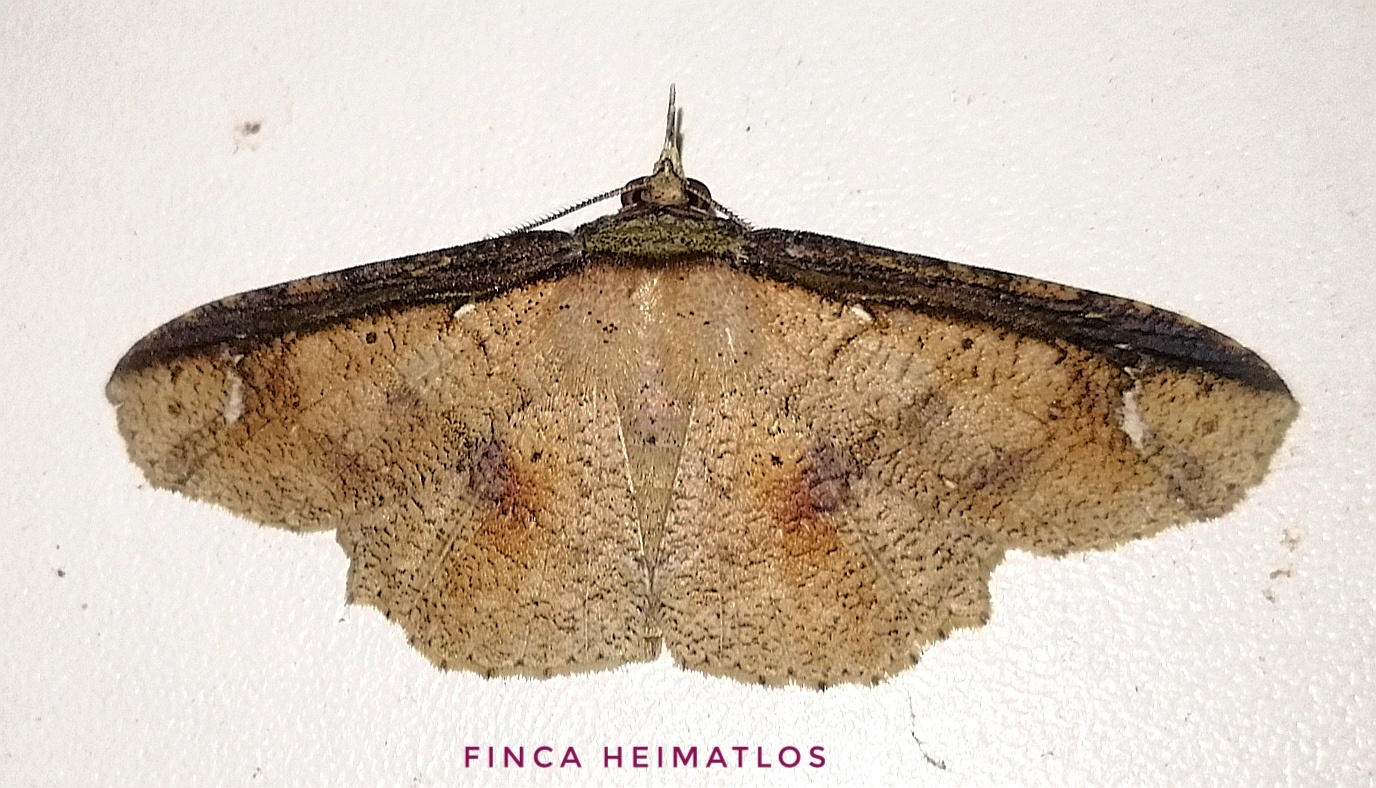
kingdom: Animalia
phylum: Arthropoda
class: Insecta
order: Lepidoptera
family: Erebidae
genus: Erebostrota
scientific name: Erebostrota stenelea
